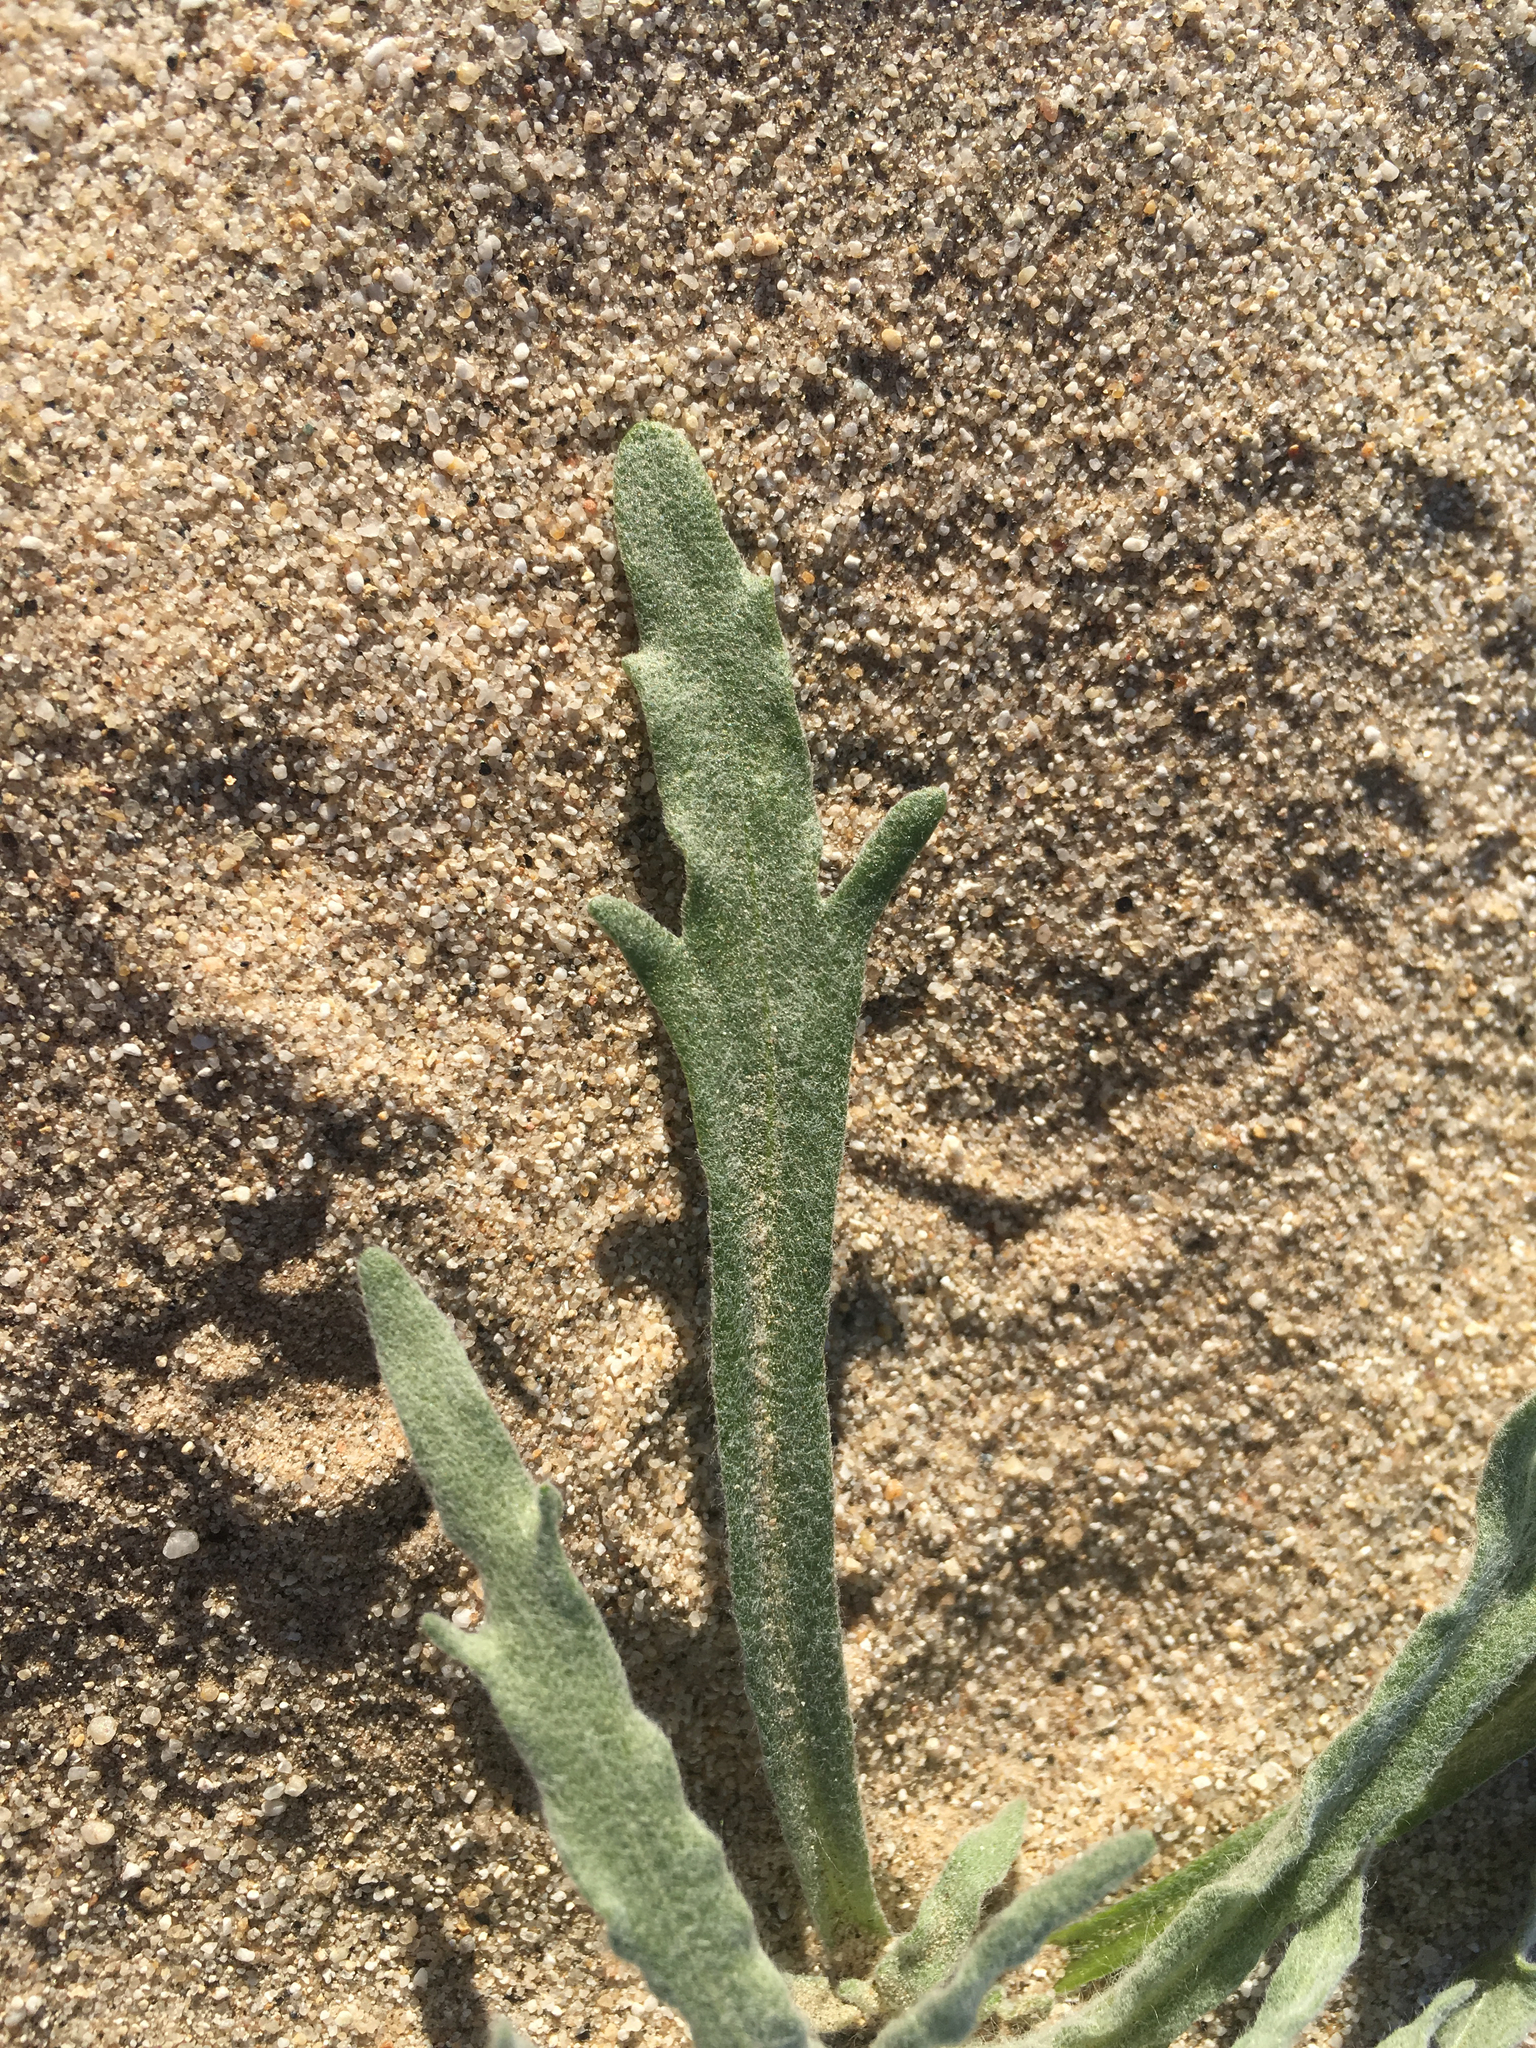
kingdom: Plantae
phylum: Tracheophyta
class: Magnoliopsida
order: Asterales
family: Asteraceae
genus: Baileya
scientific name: Baileya pauciradiata
